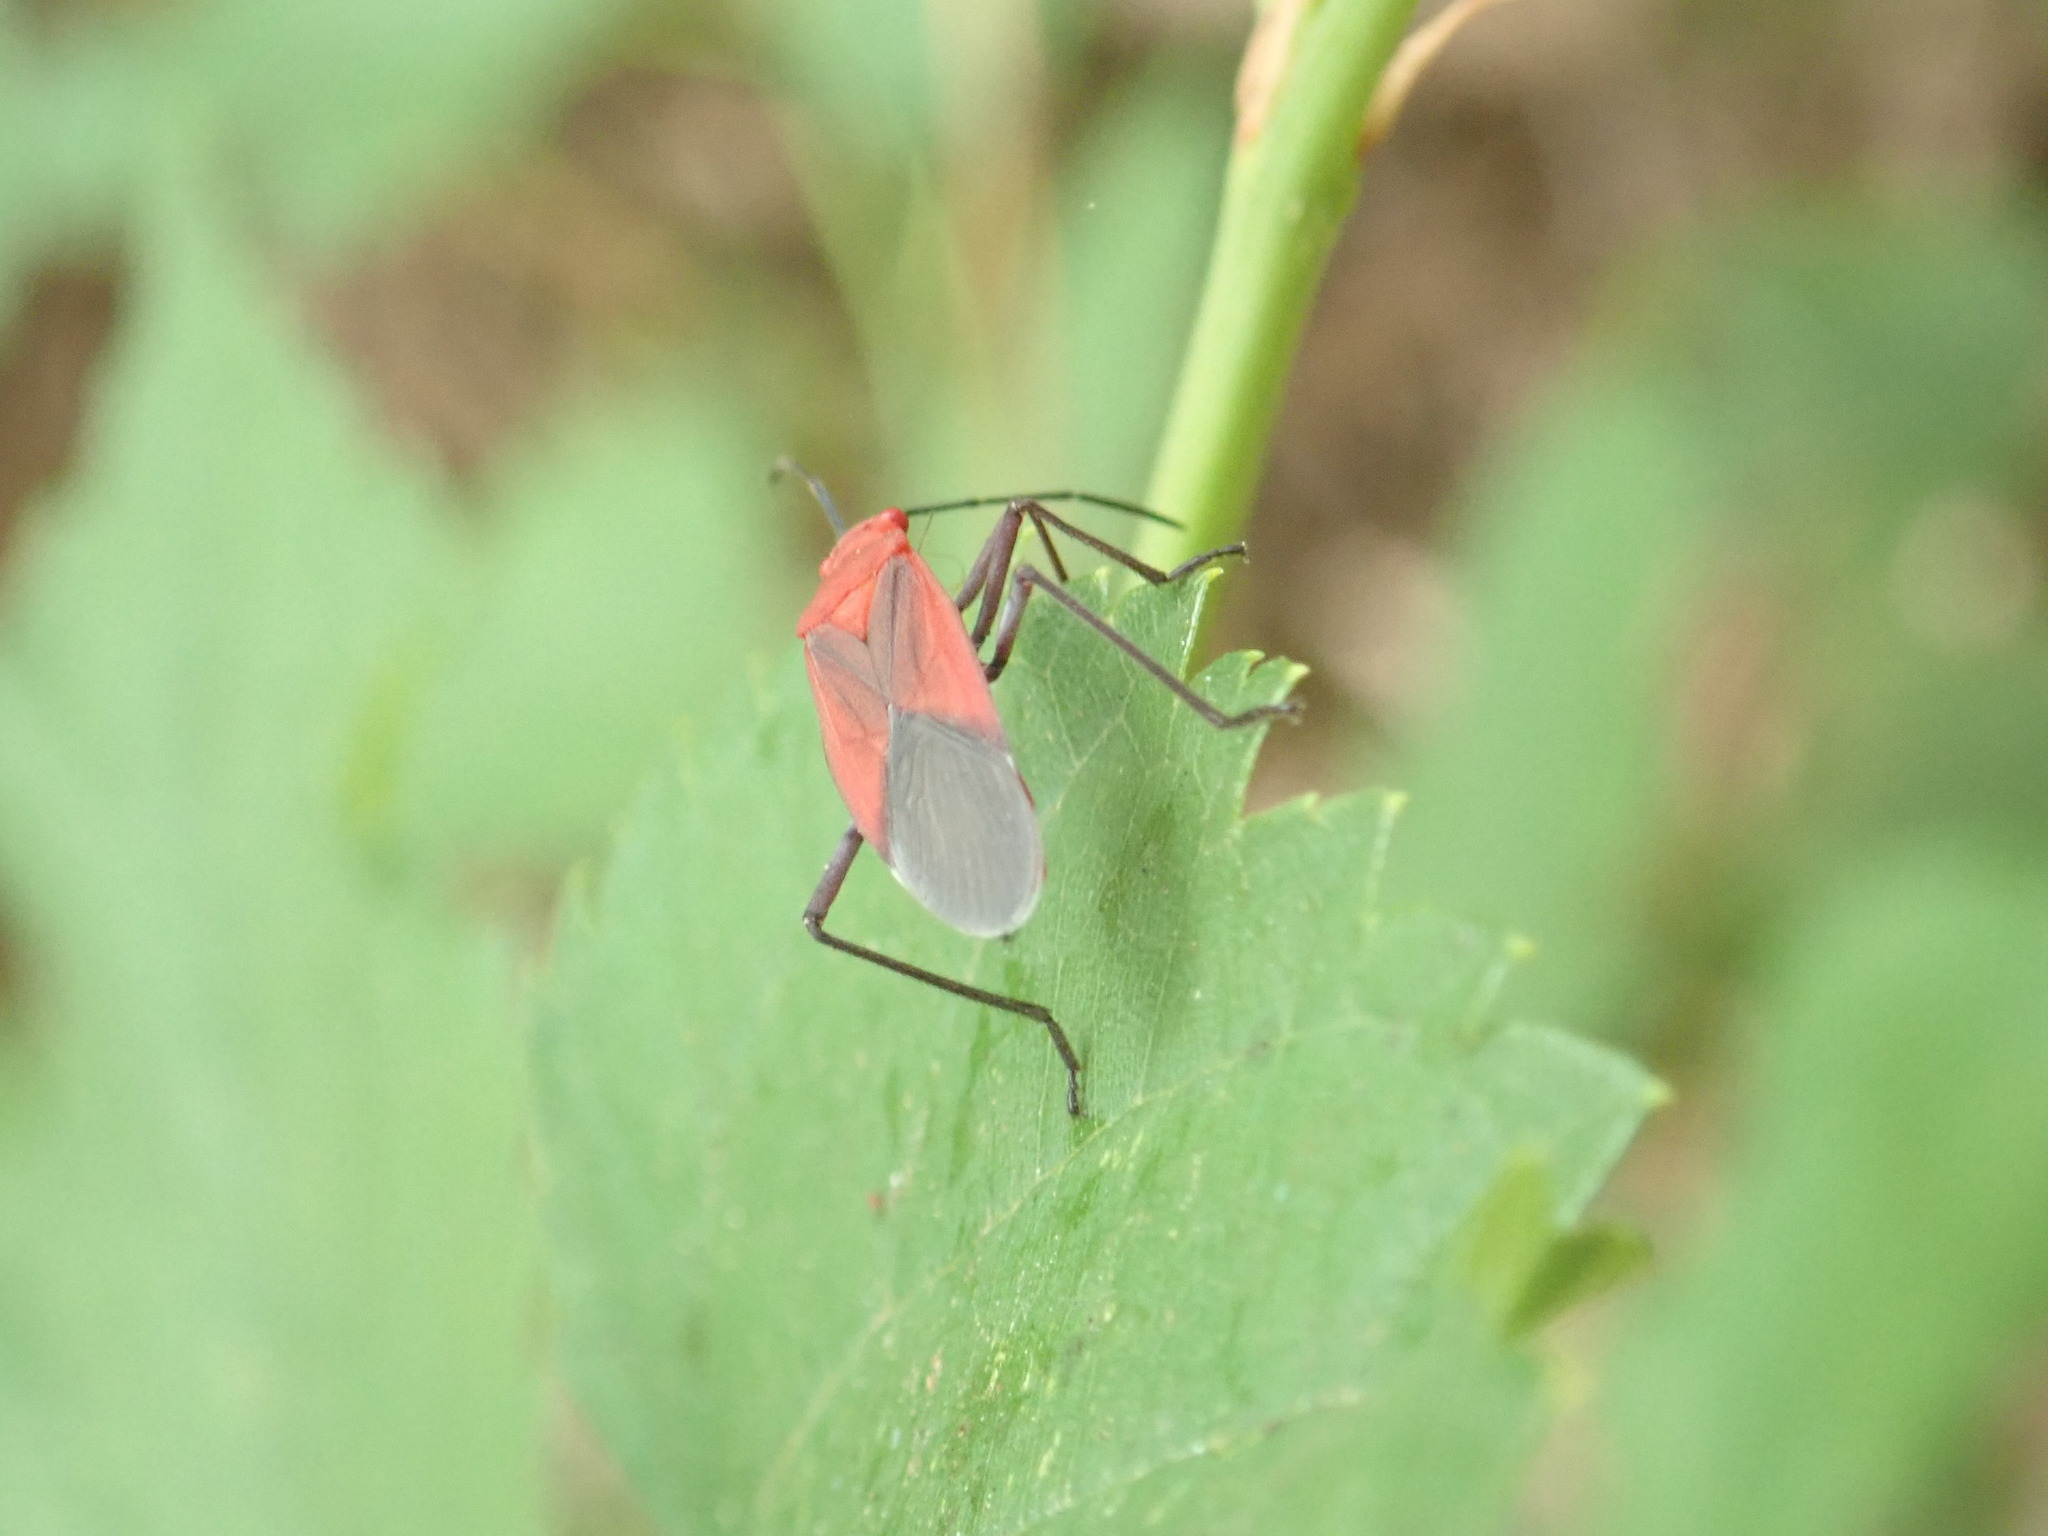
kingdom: Animalia
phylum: Arthropoda
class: Insecta
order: Hemiptera
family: Rhopalidae
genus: Leptocoris
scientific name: Leptocoris vicinus
